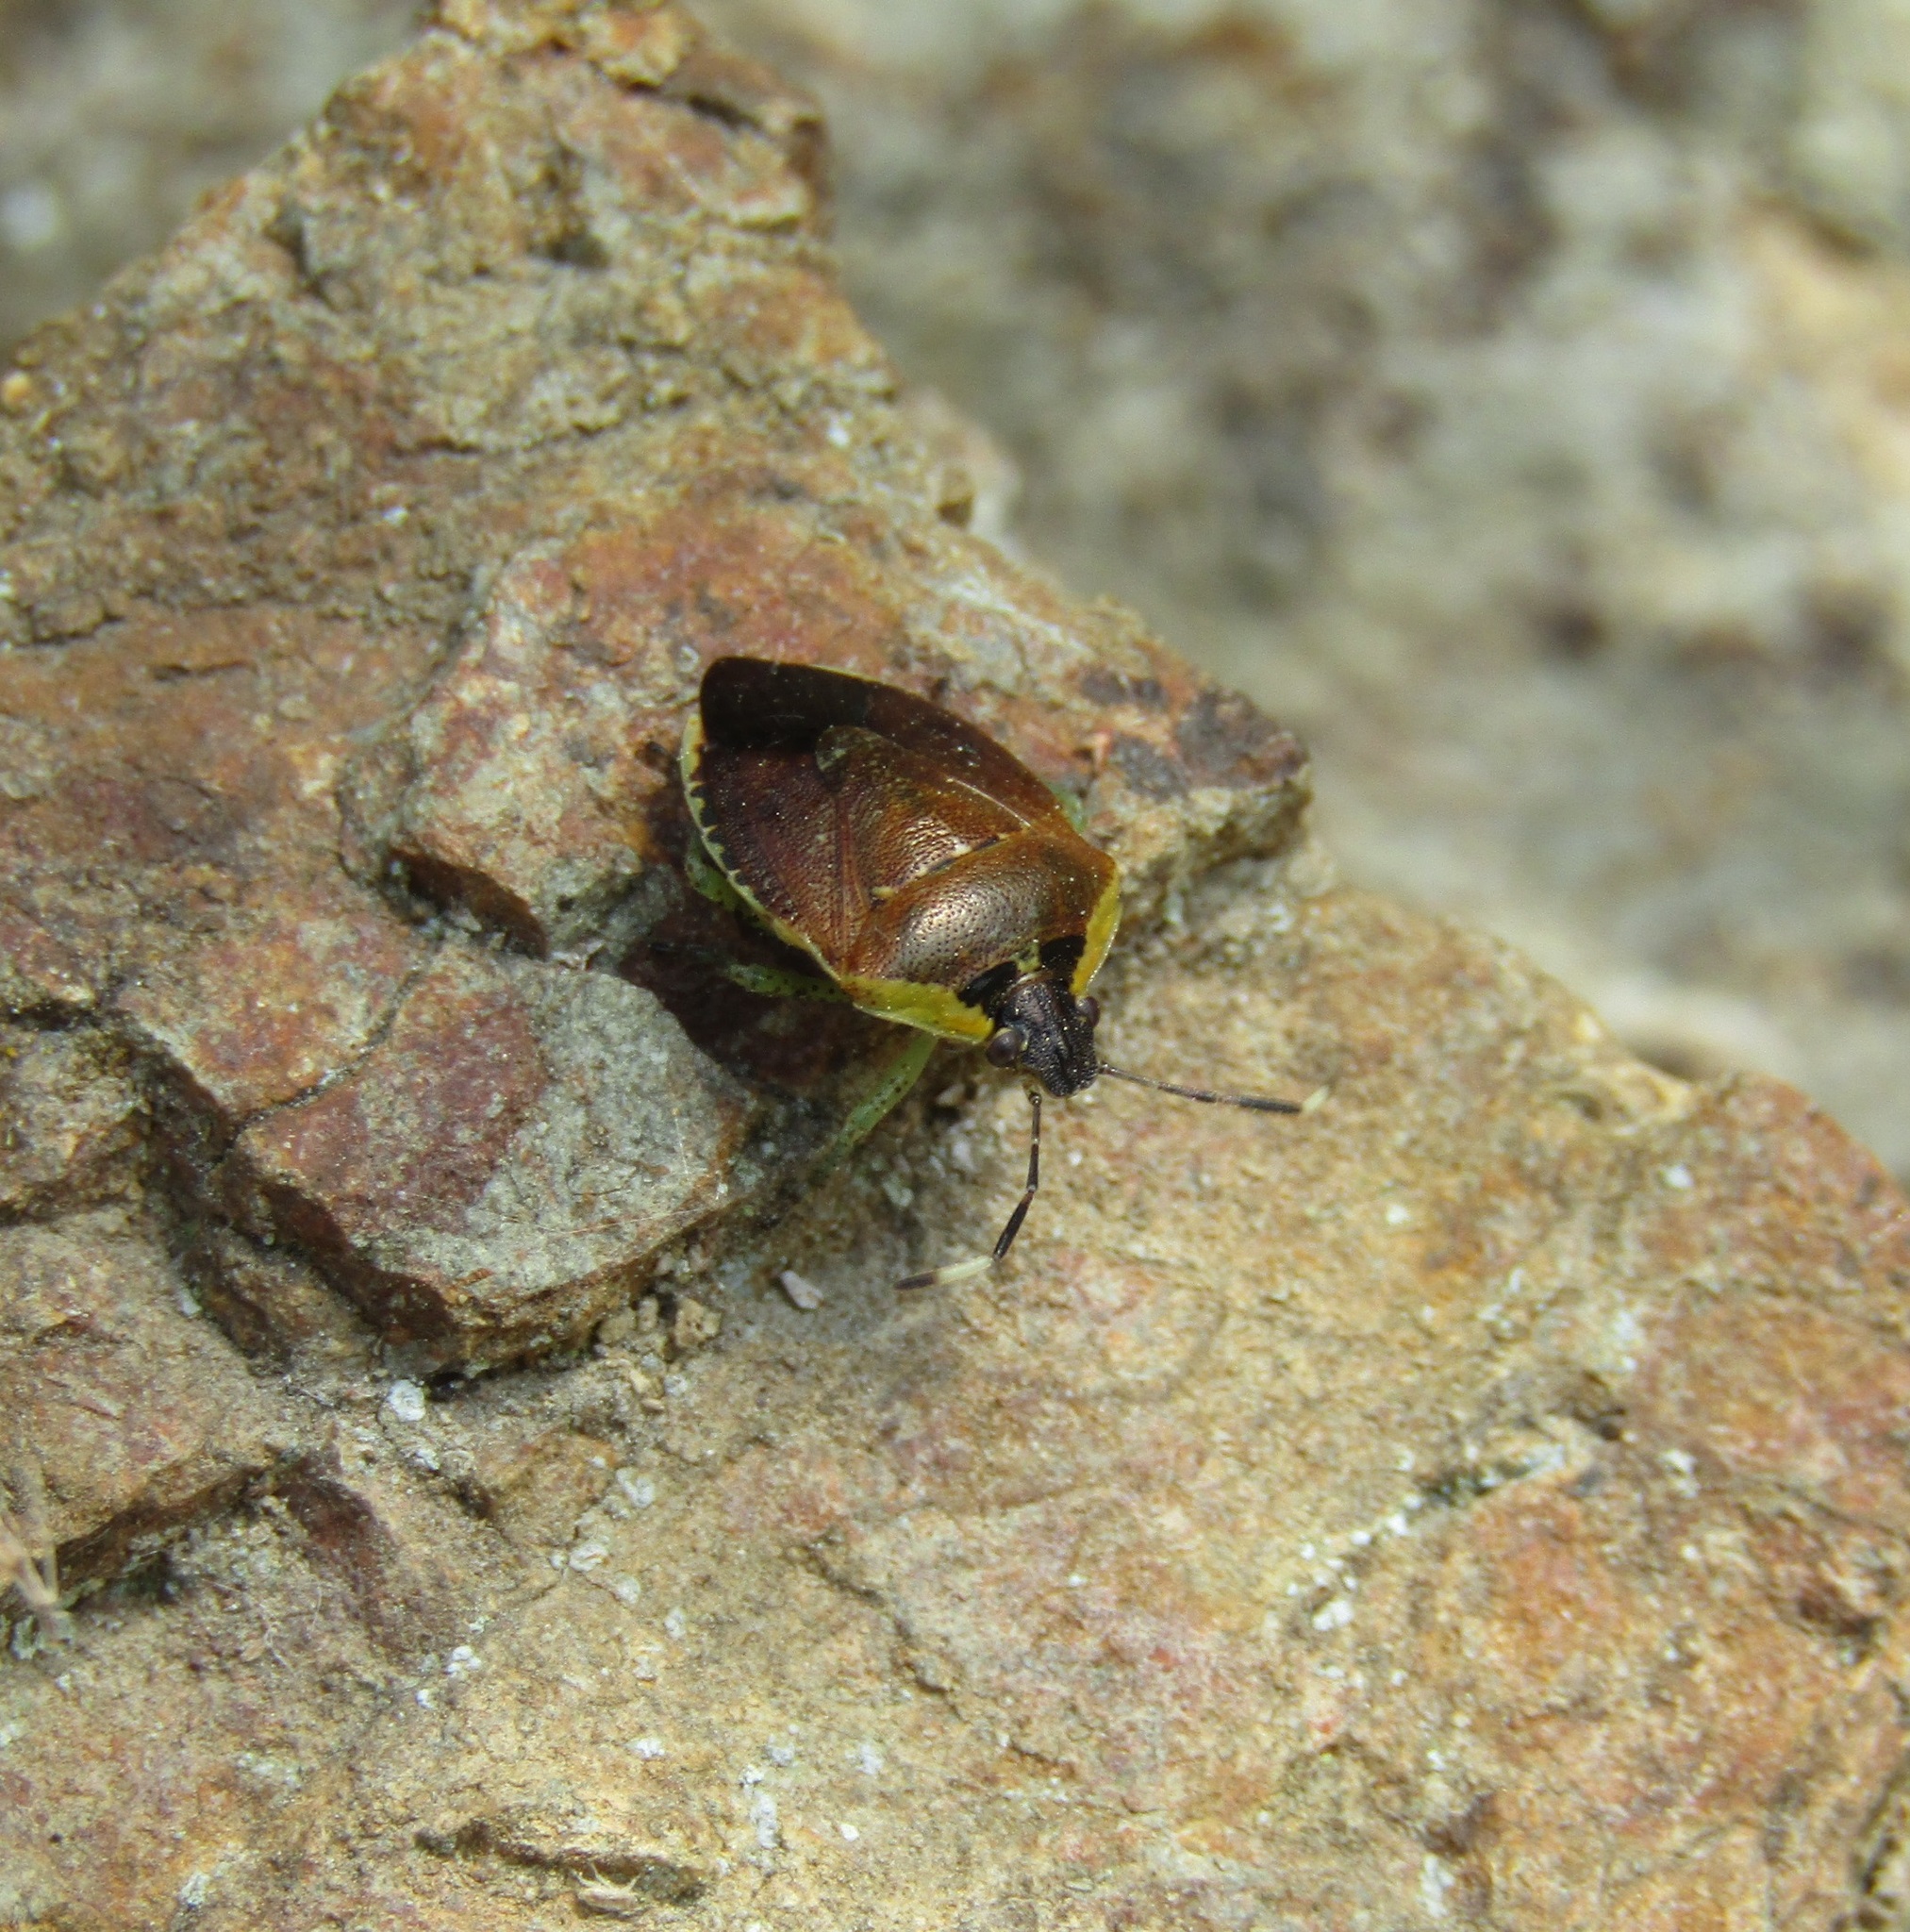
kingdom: Animalia
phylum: Arthropoda
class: Insecta
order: Hemiptera
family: Pentatomidae
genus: Monteithiella
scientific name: Monteithiella
